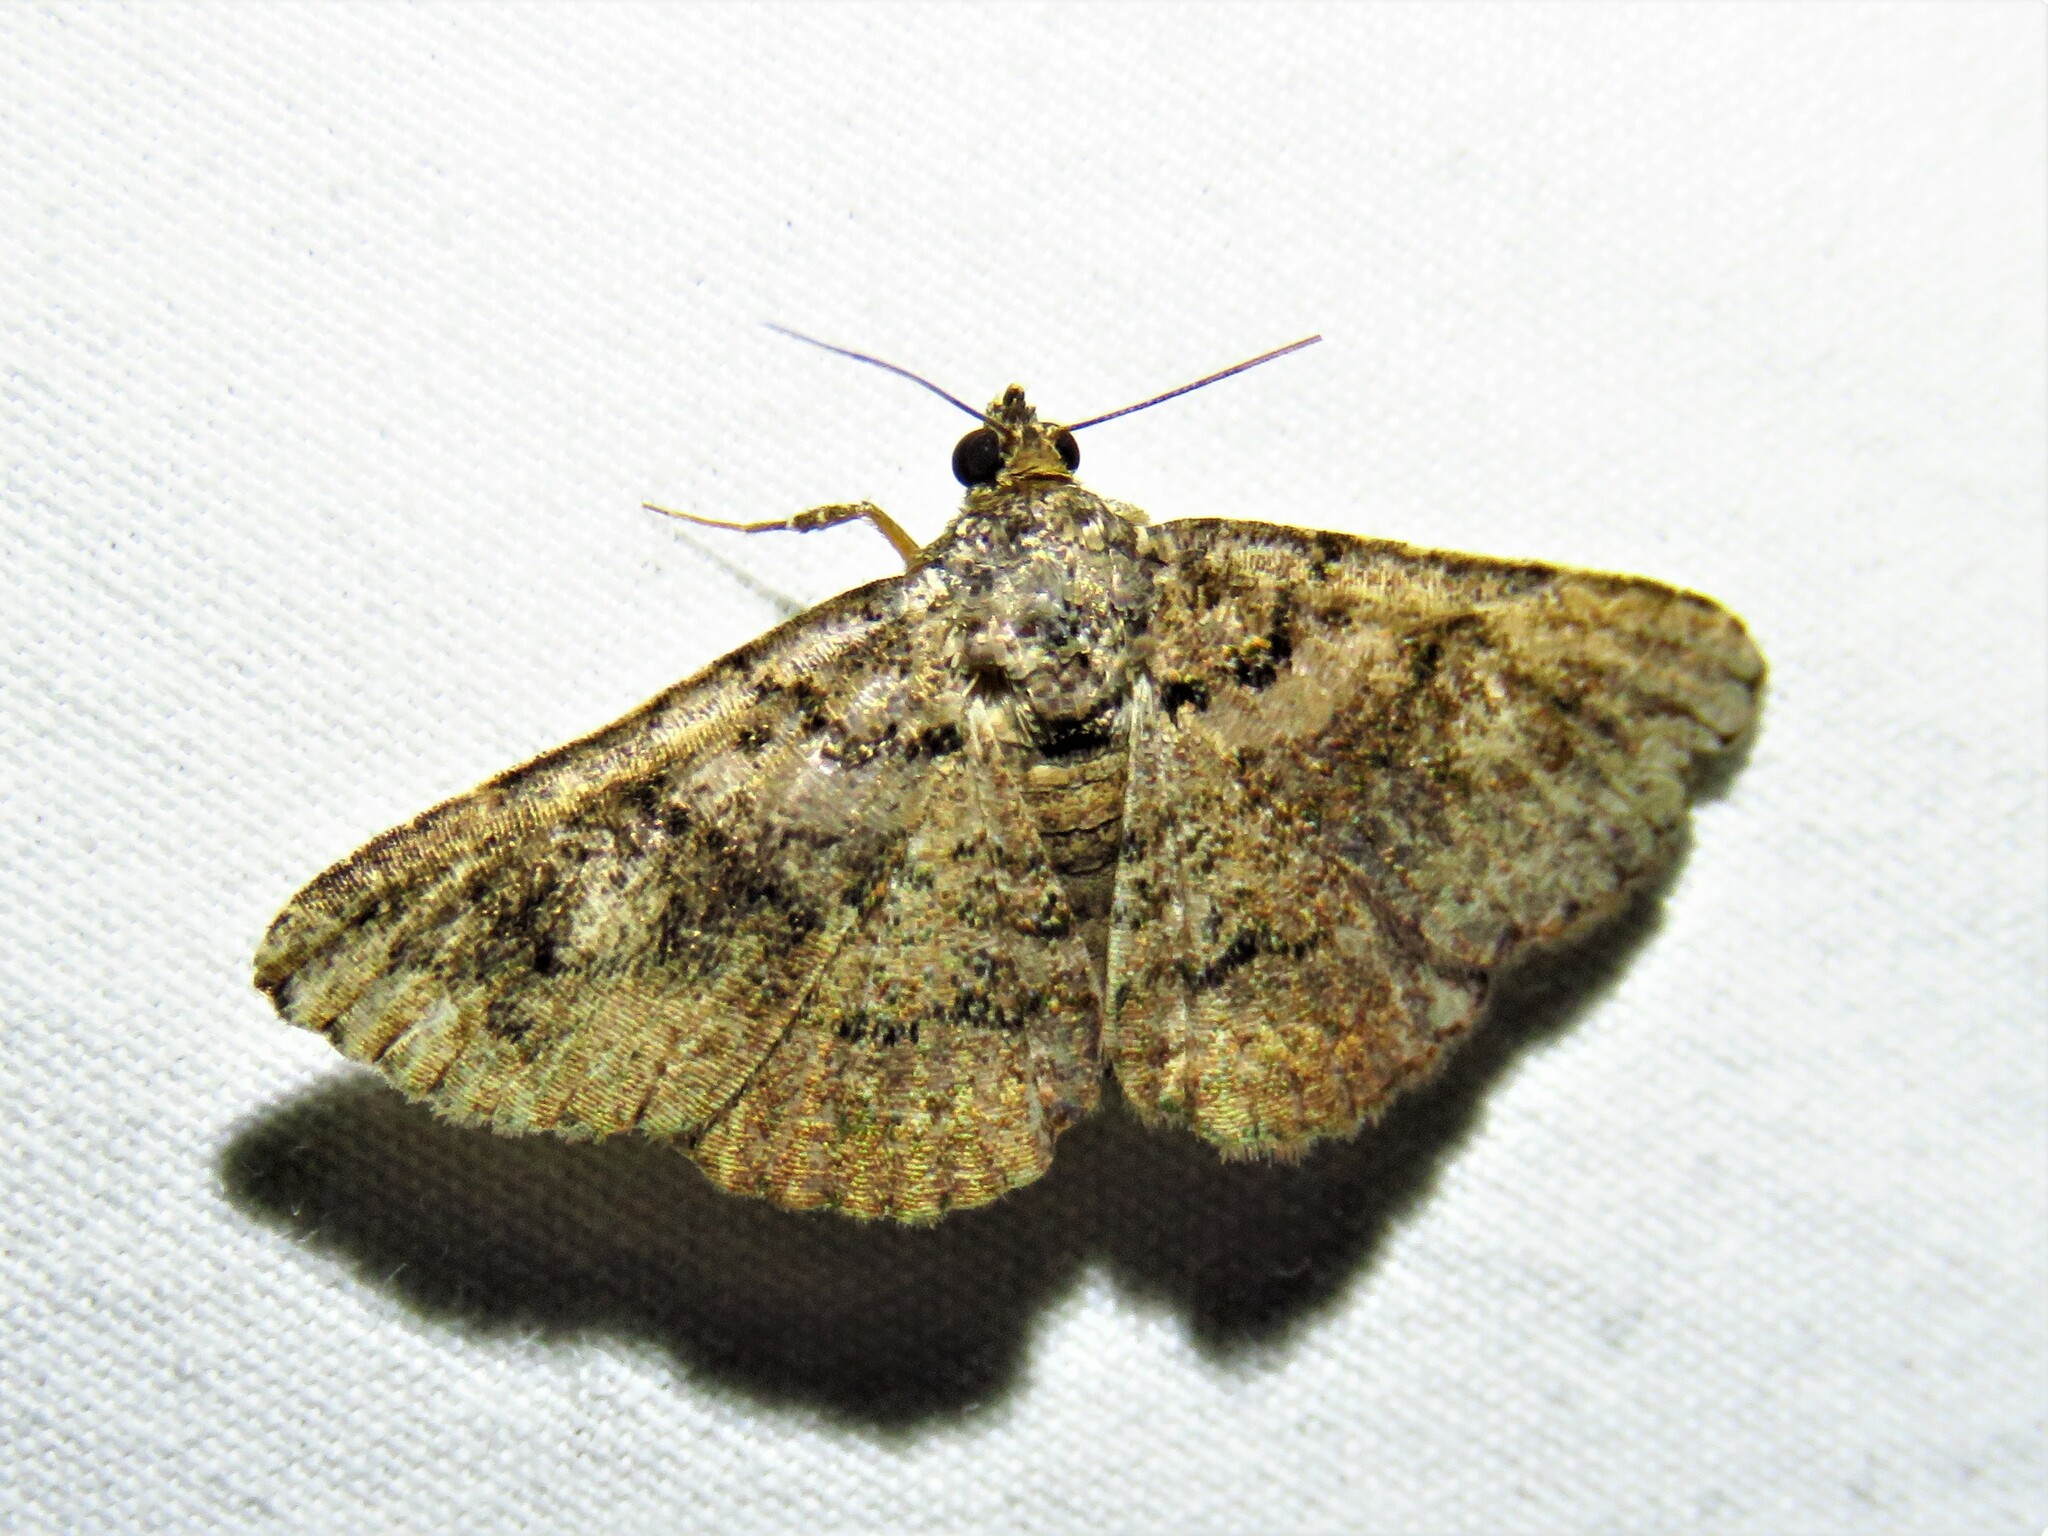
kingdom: Animalia
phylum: Arthropoda
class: Insecta
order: Lepidoptera
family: Erebidae
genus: Toxonprucha
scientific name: Toxonprucha excavata
